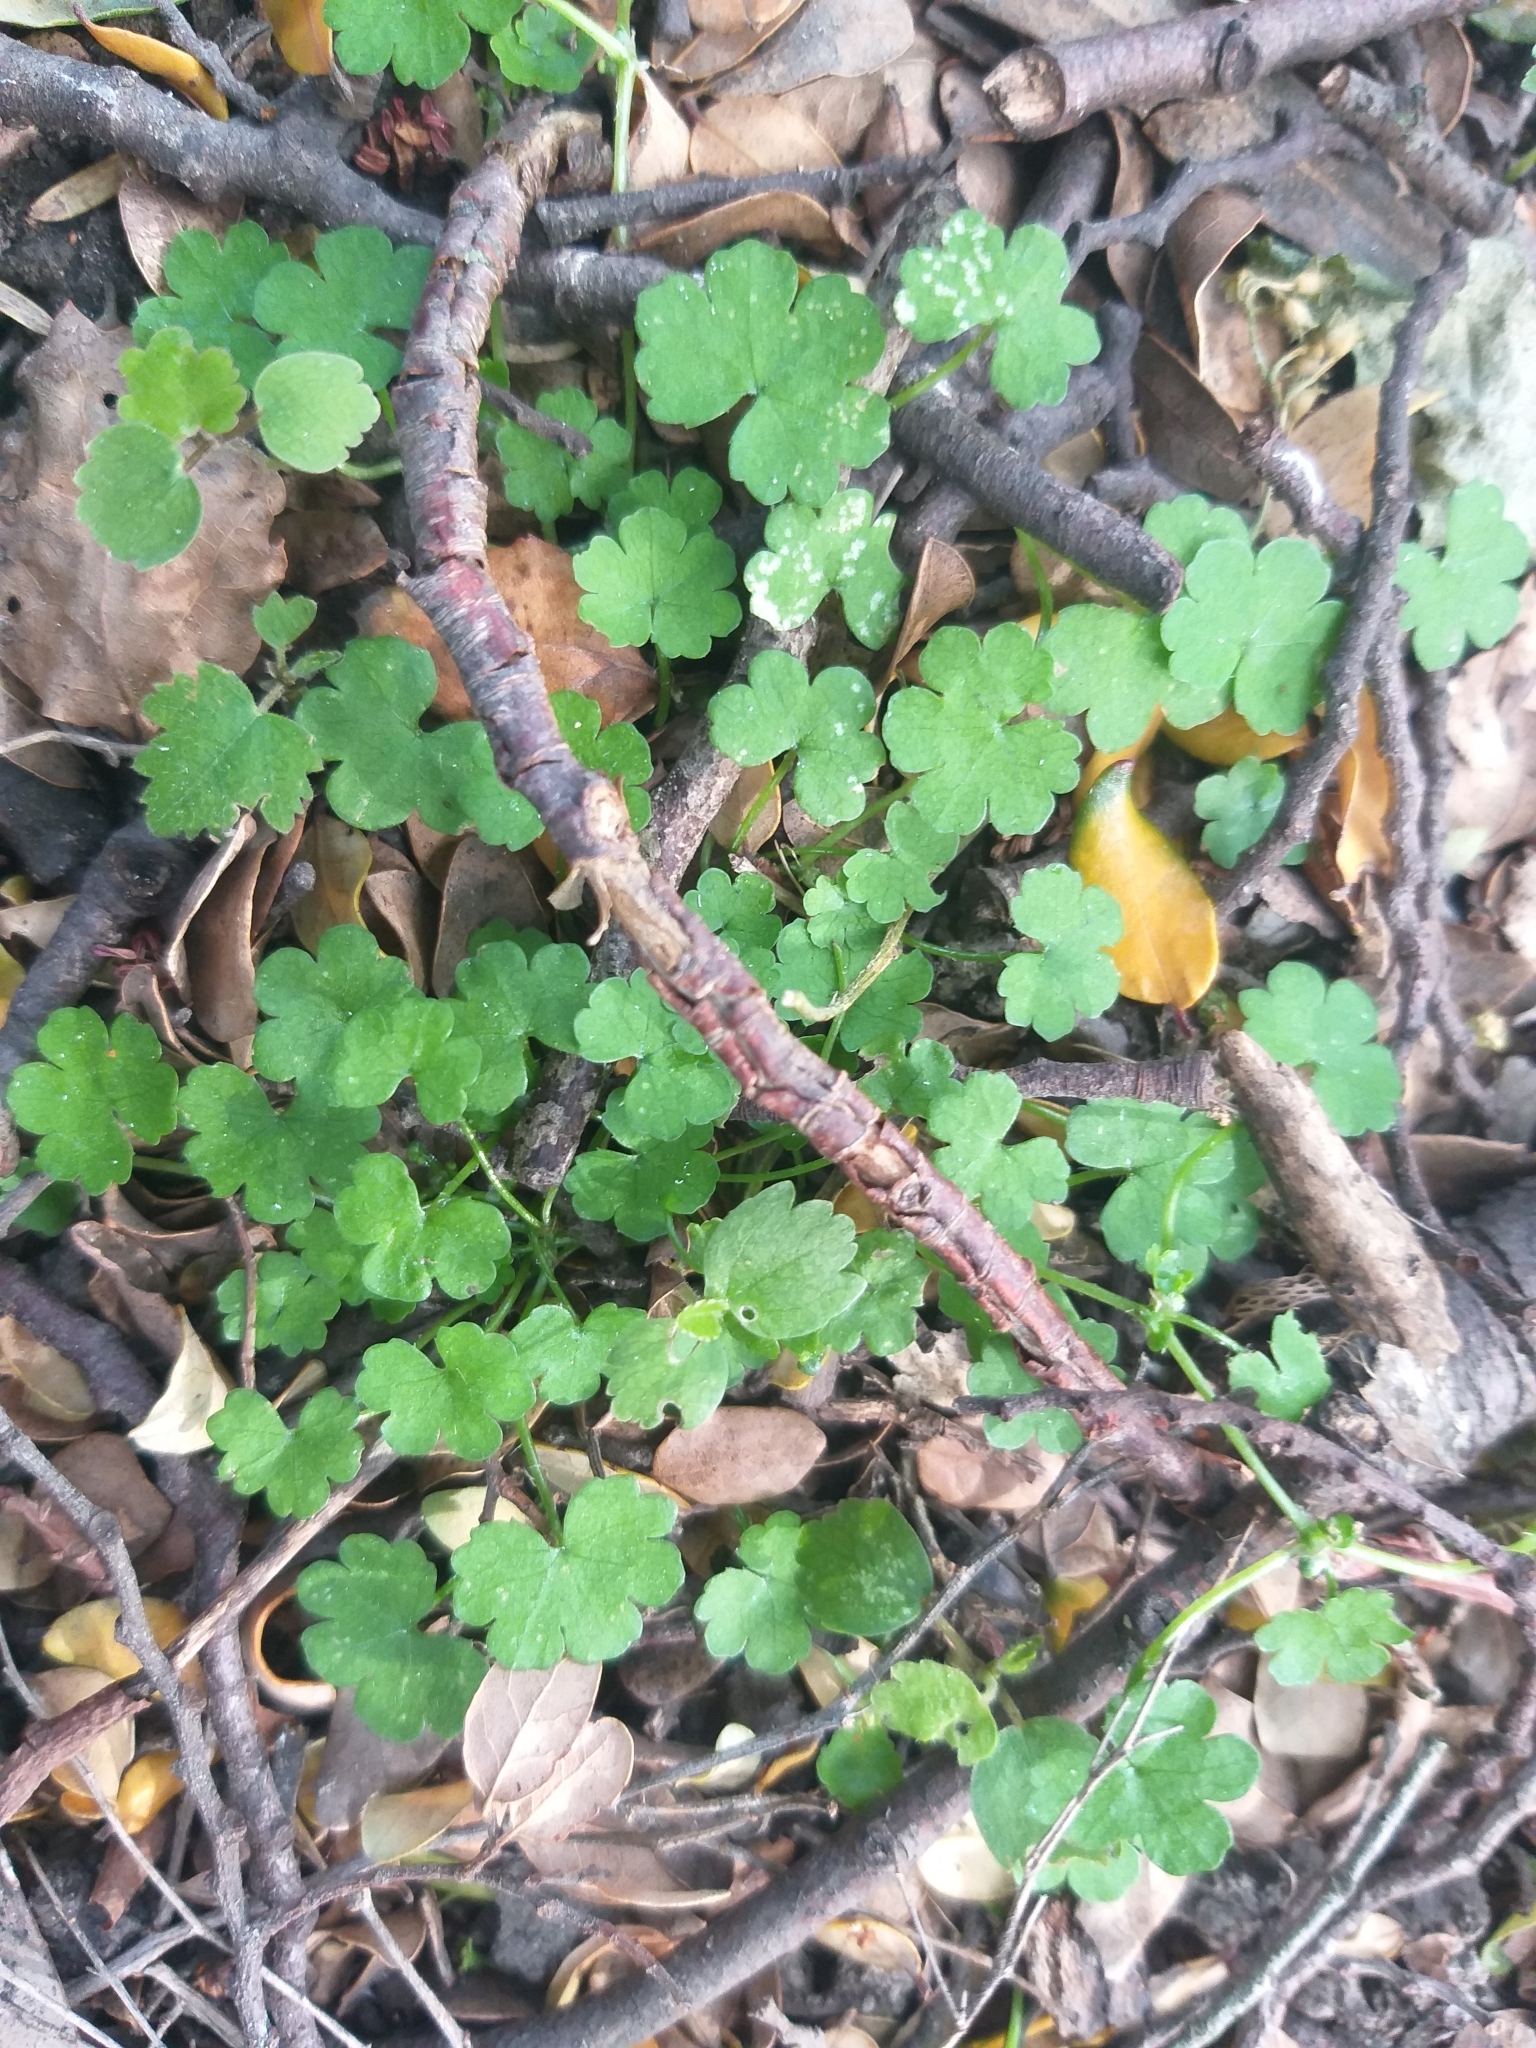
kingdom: Plantae
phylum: Tracheophyta
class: Magnoliopsida
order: Apiales
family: Araliaceae
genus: Hydrocotyle
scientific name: Hydrocotyle heteromeria
